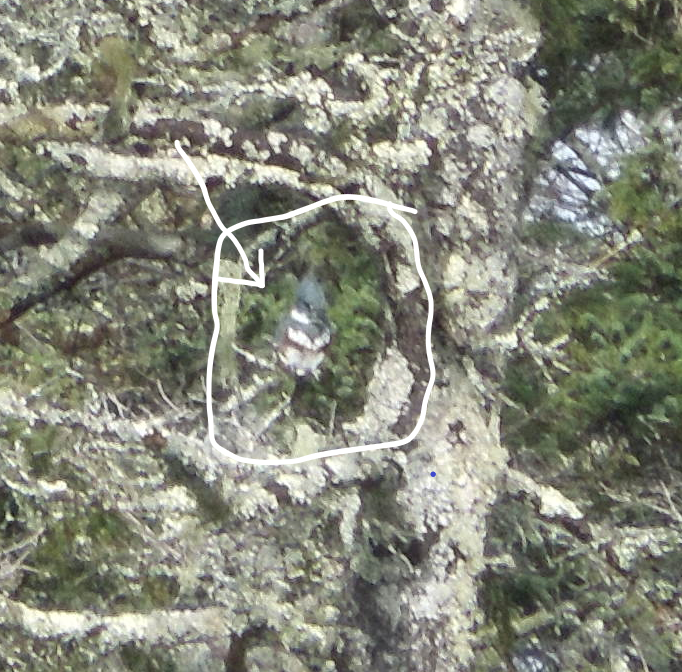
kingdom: Animalia
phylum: Chordata
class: Aves
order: Coraciiformes
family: Alcedinidae
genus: Megaceryle
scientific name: Megaceryle alcyon
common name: Belted kingfisher
